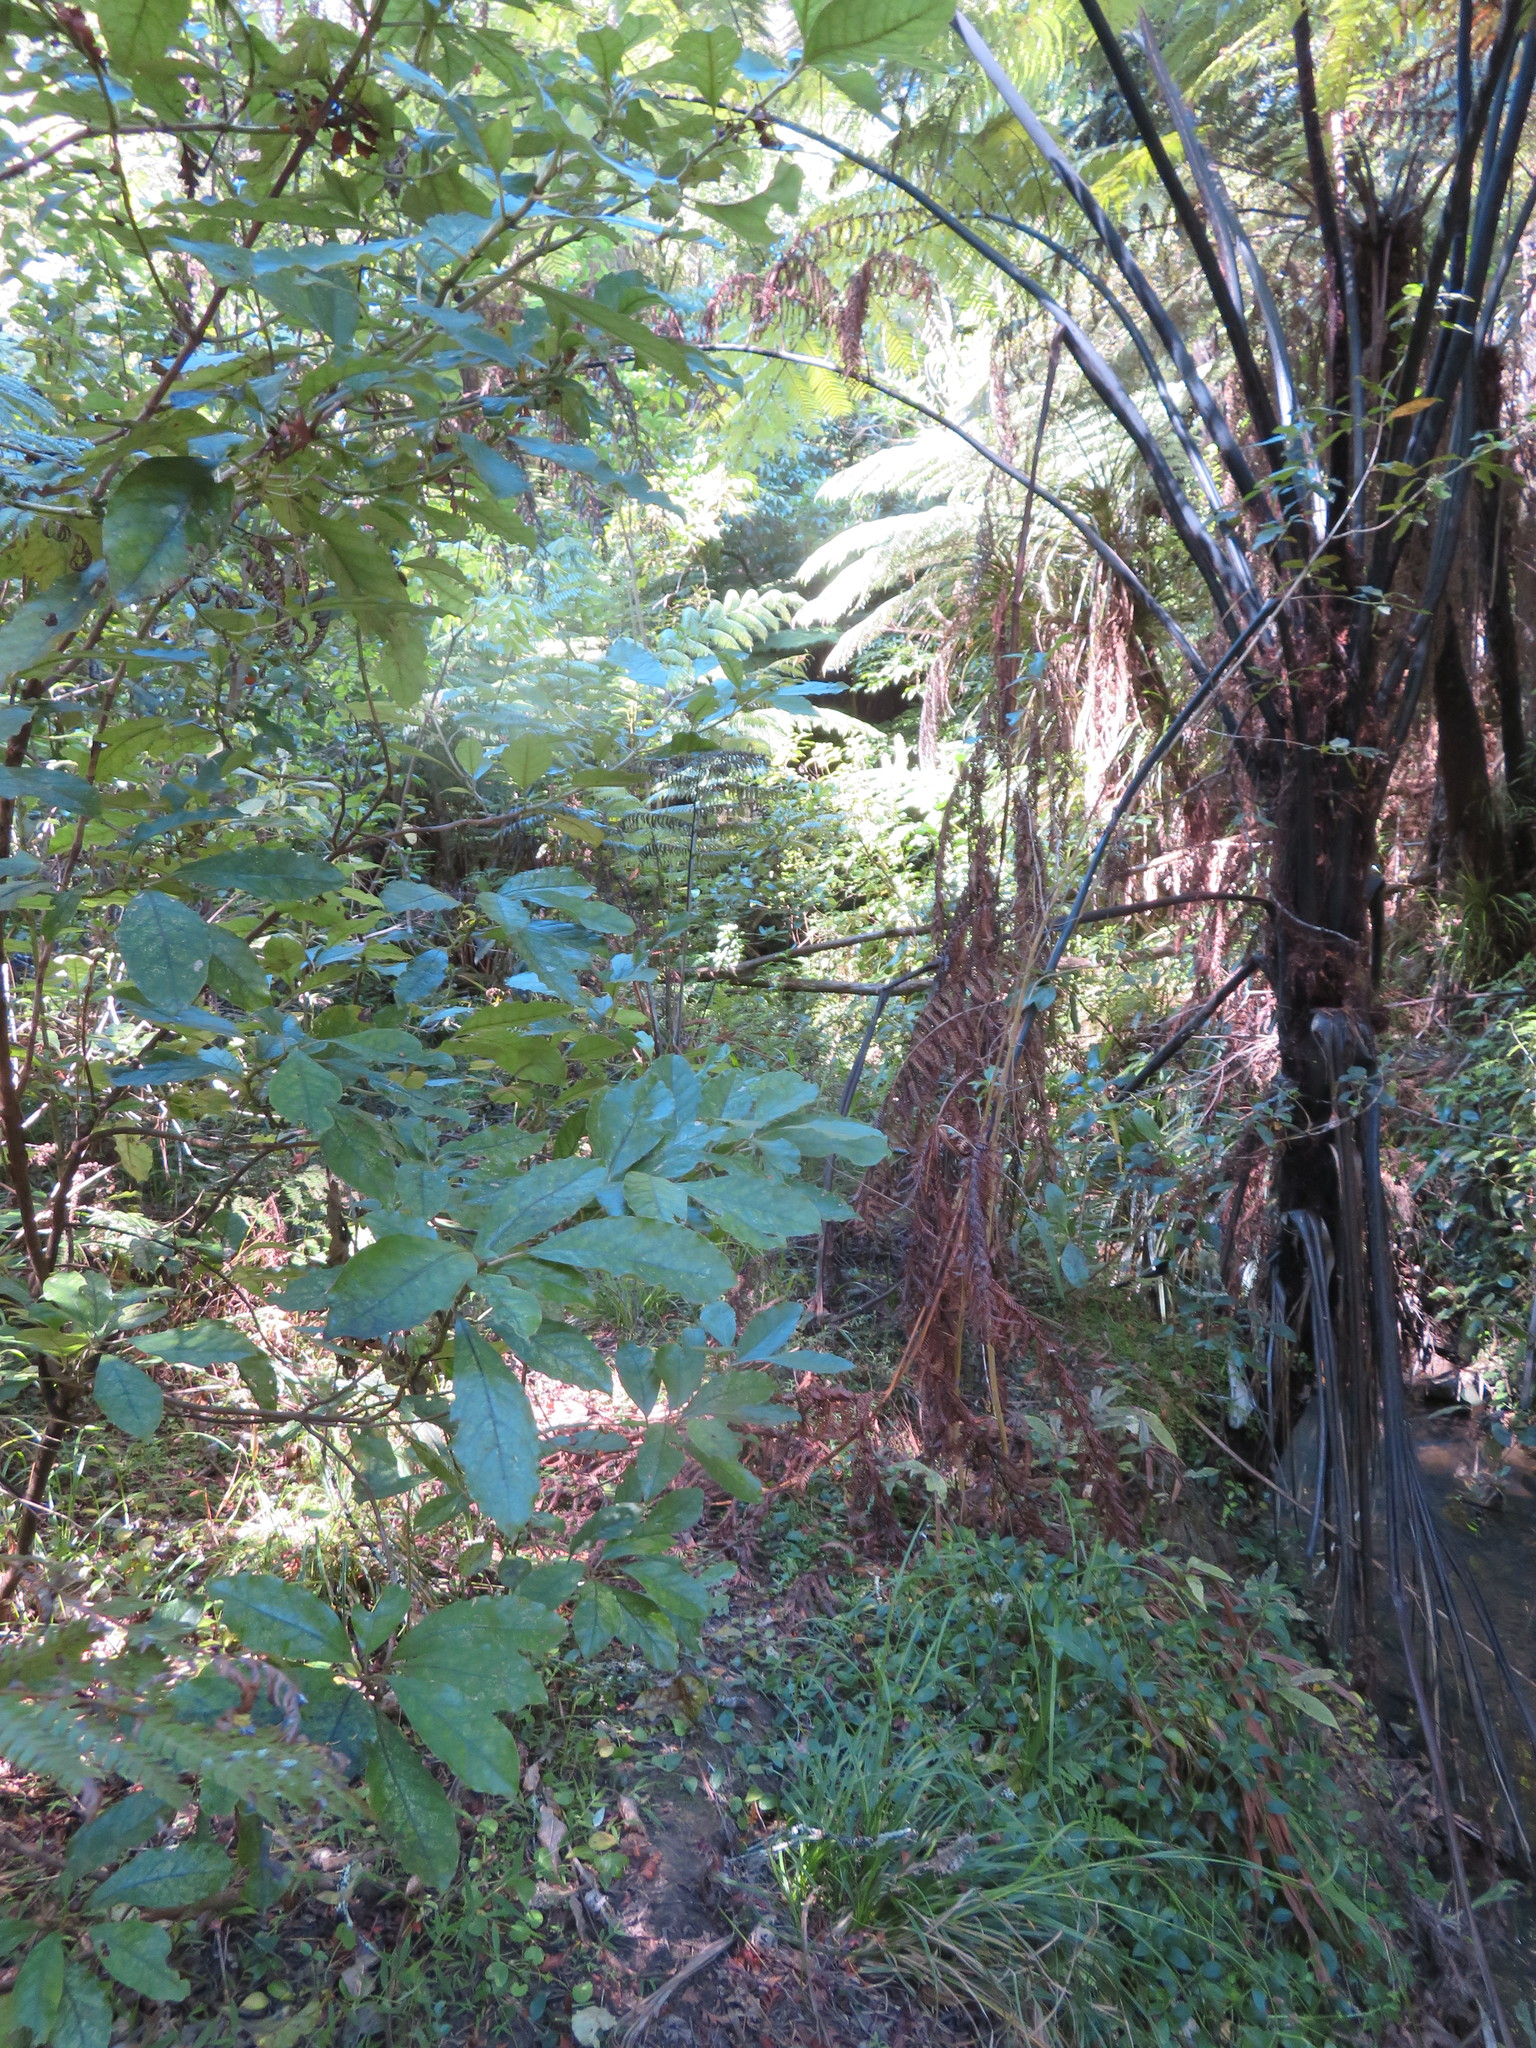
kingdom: Plantae
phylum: Tracheophyta
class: Magnoliopsida
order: Gentianales
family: Rubiaceae
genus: Coprosma
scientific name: Coprosma autumnalis
